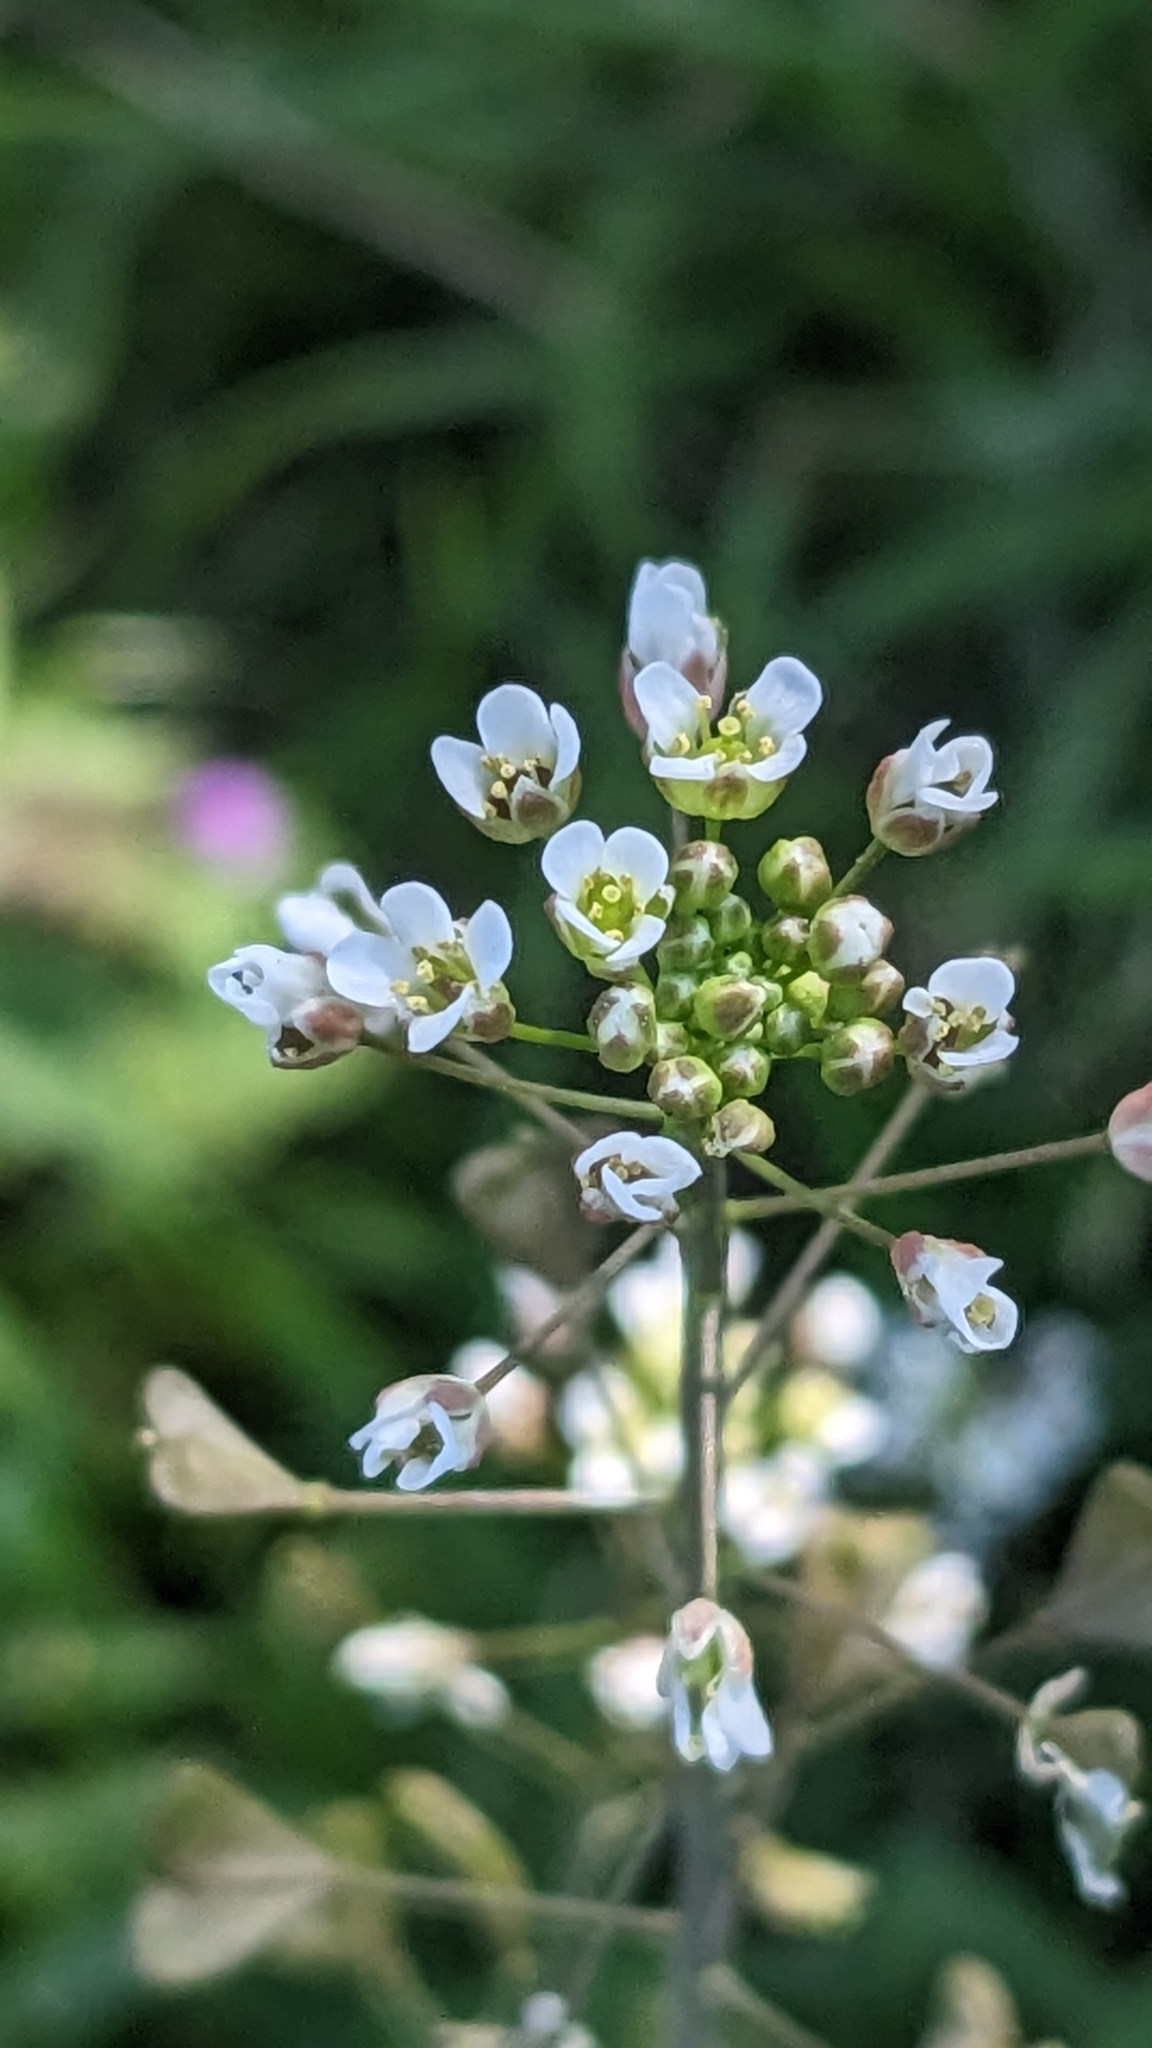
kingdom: Plantae
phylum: Tracheophyta
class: Magnoliopsida
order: Brassicales
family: Brassicaceae
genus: Capsella
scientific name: Capsella bursa-pastoris
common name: Shepherd's purse
